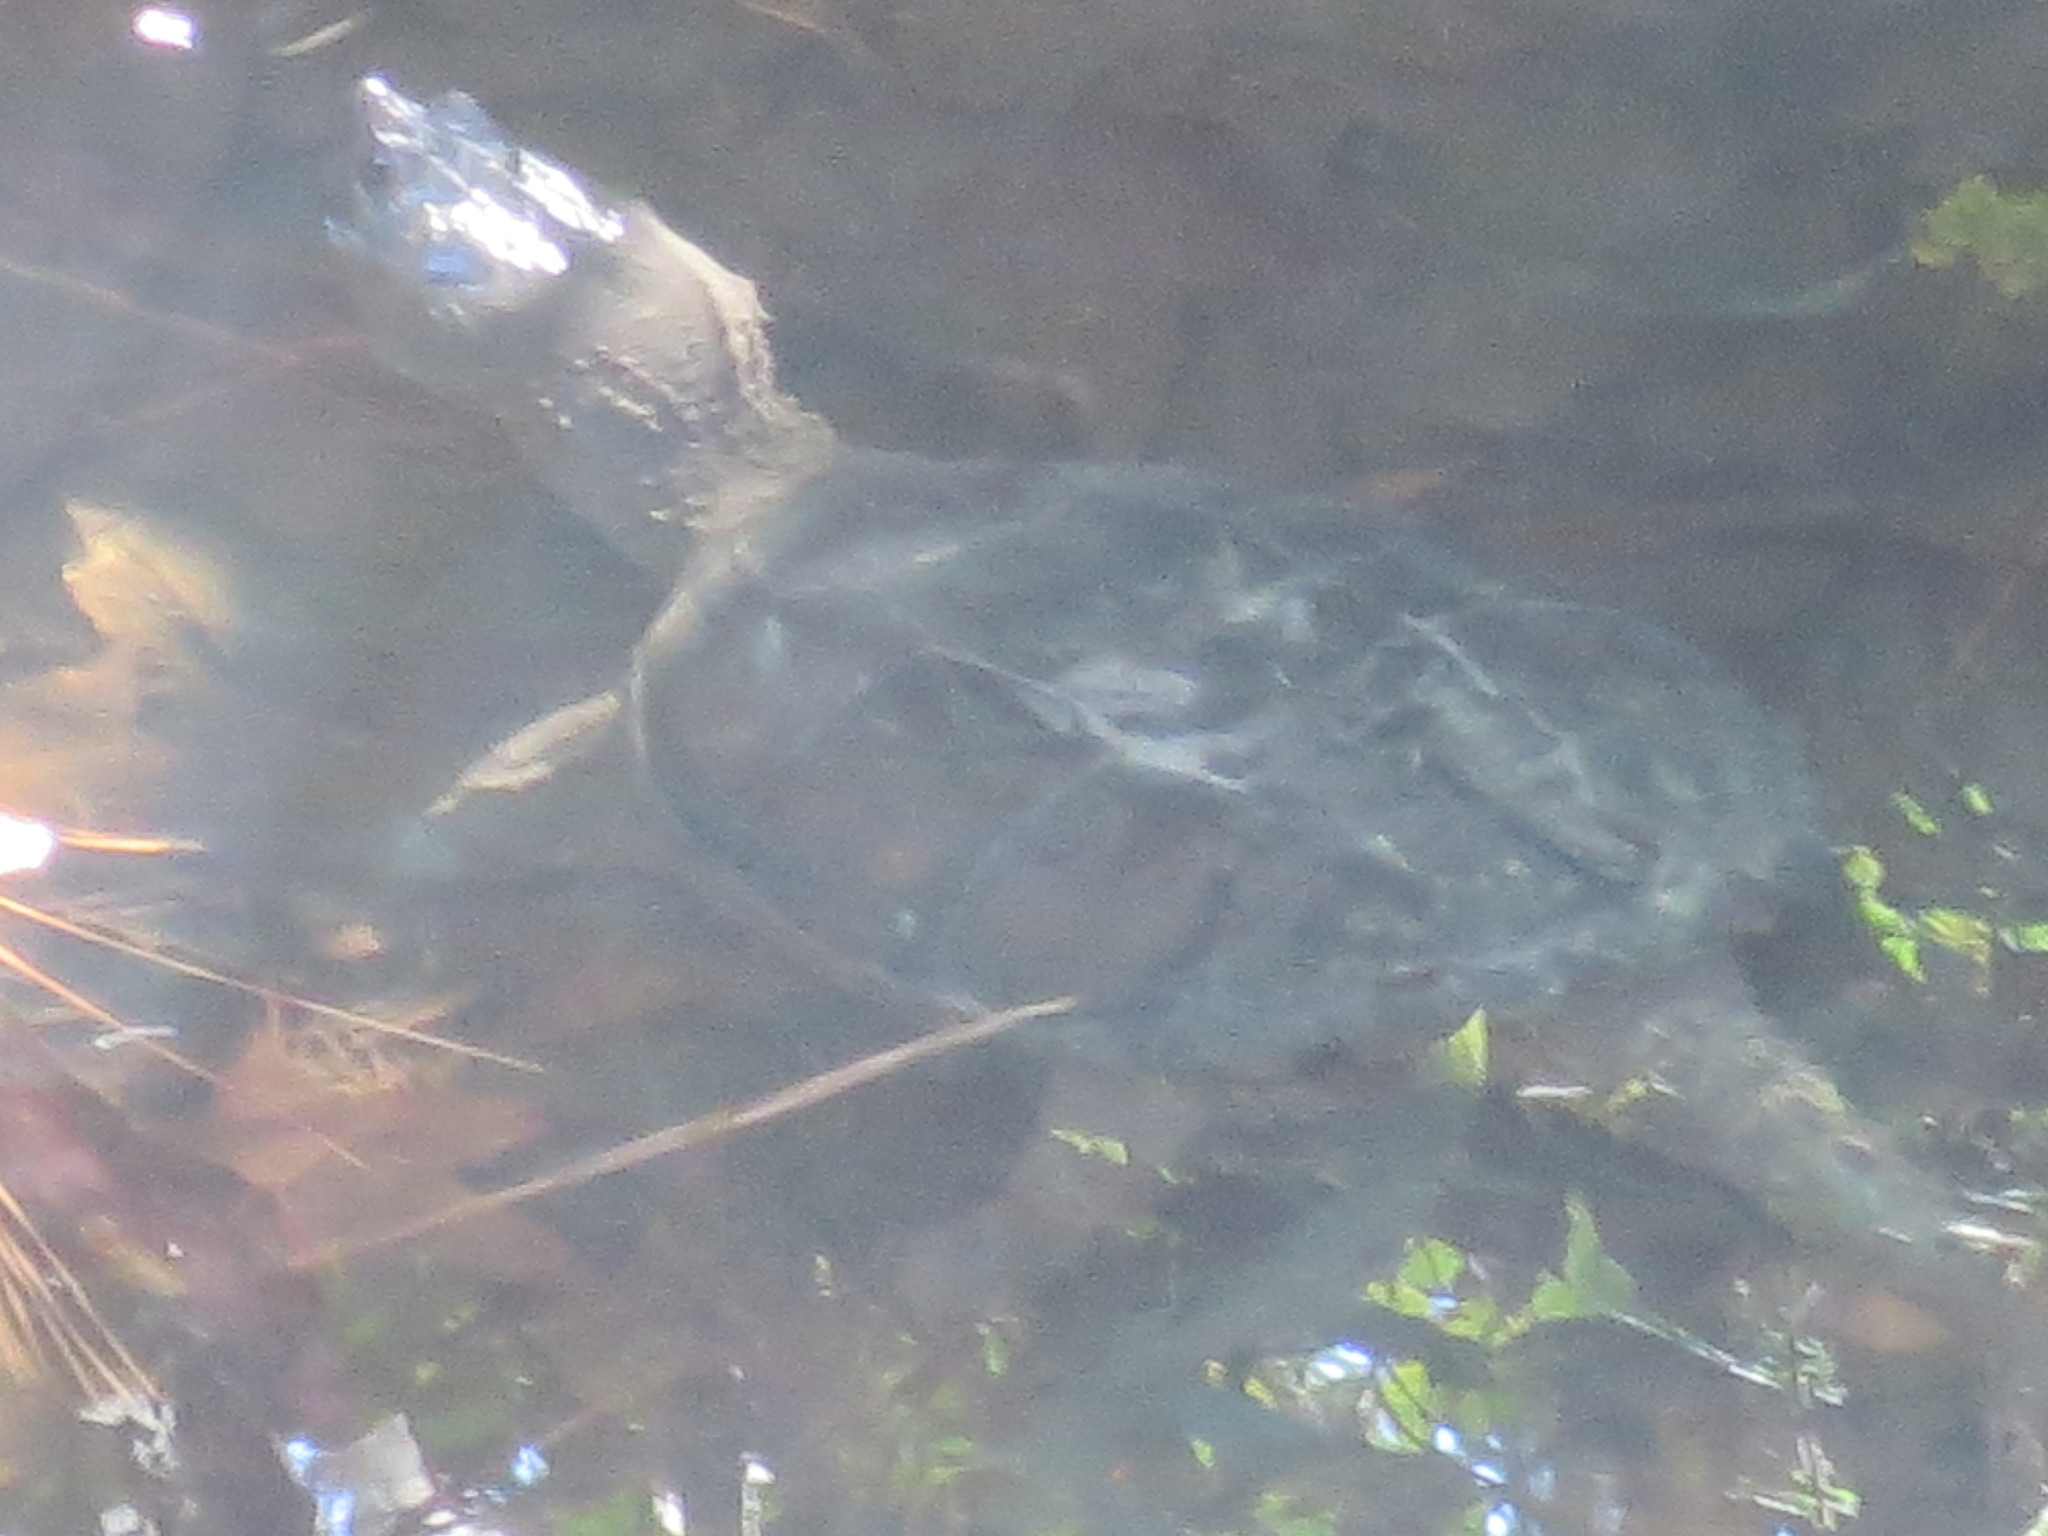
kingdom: Animalia
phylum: Chordata
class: Testudines
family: Chelydridae
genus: Chelydra
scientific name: Chelydra serpentina
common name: Common snapping turtle
